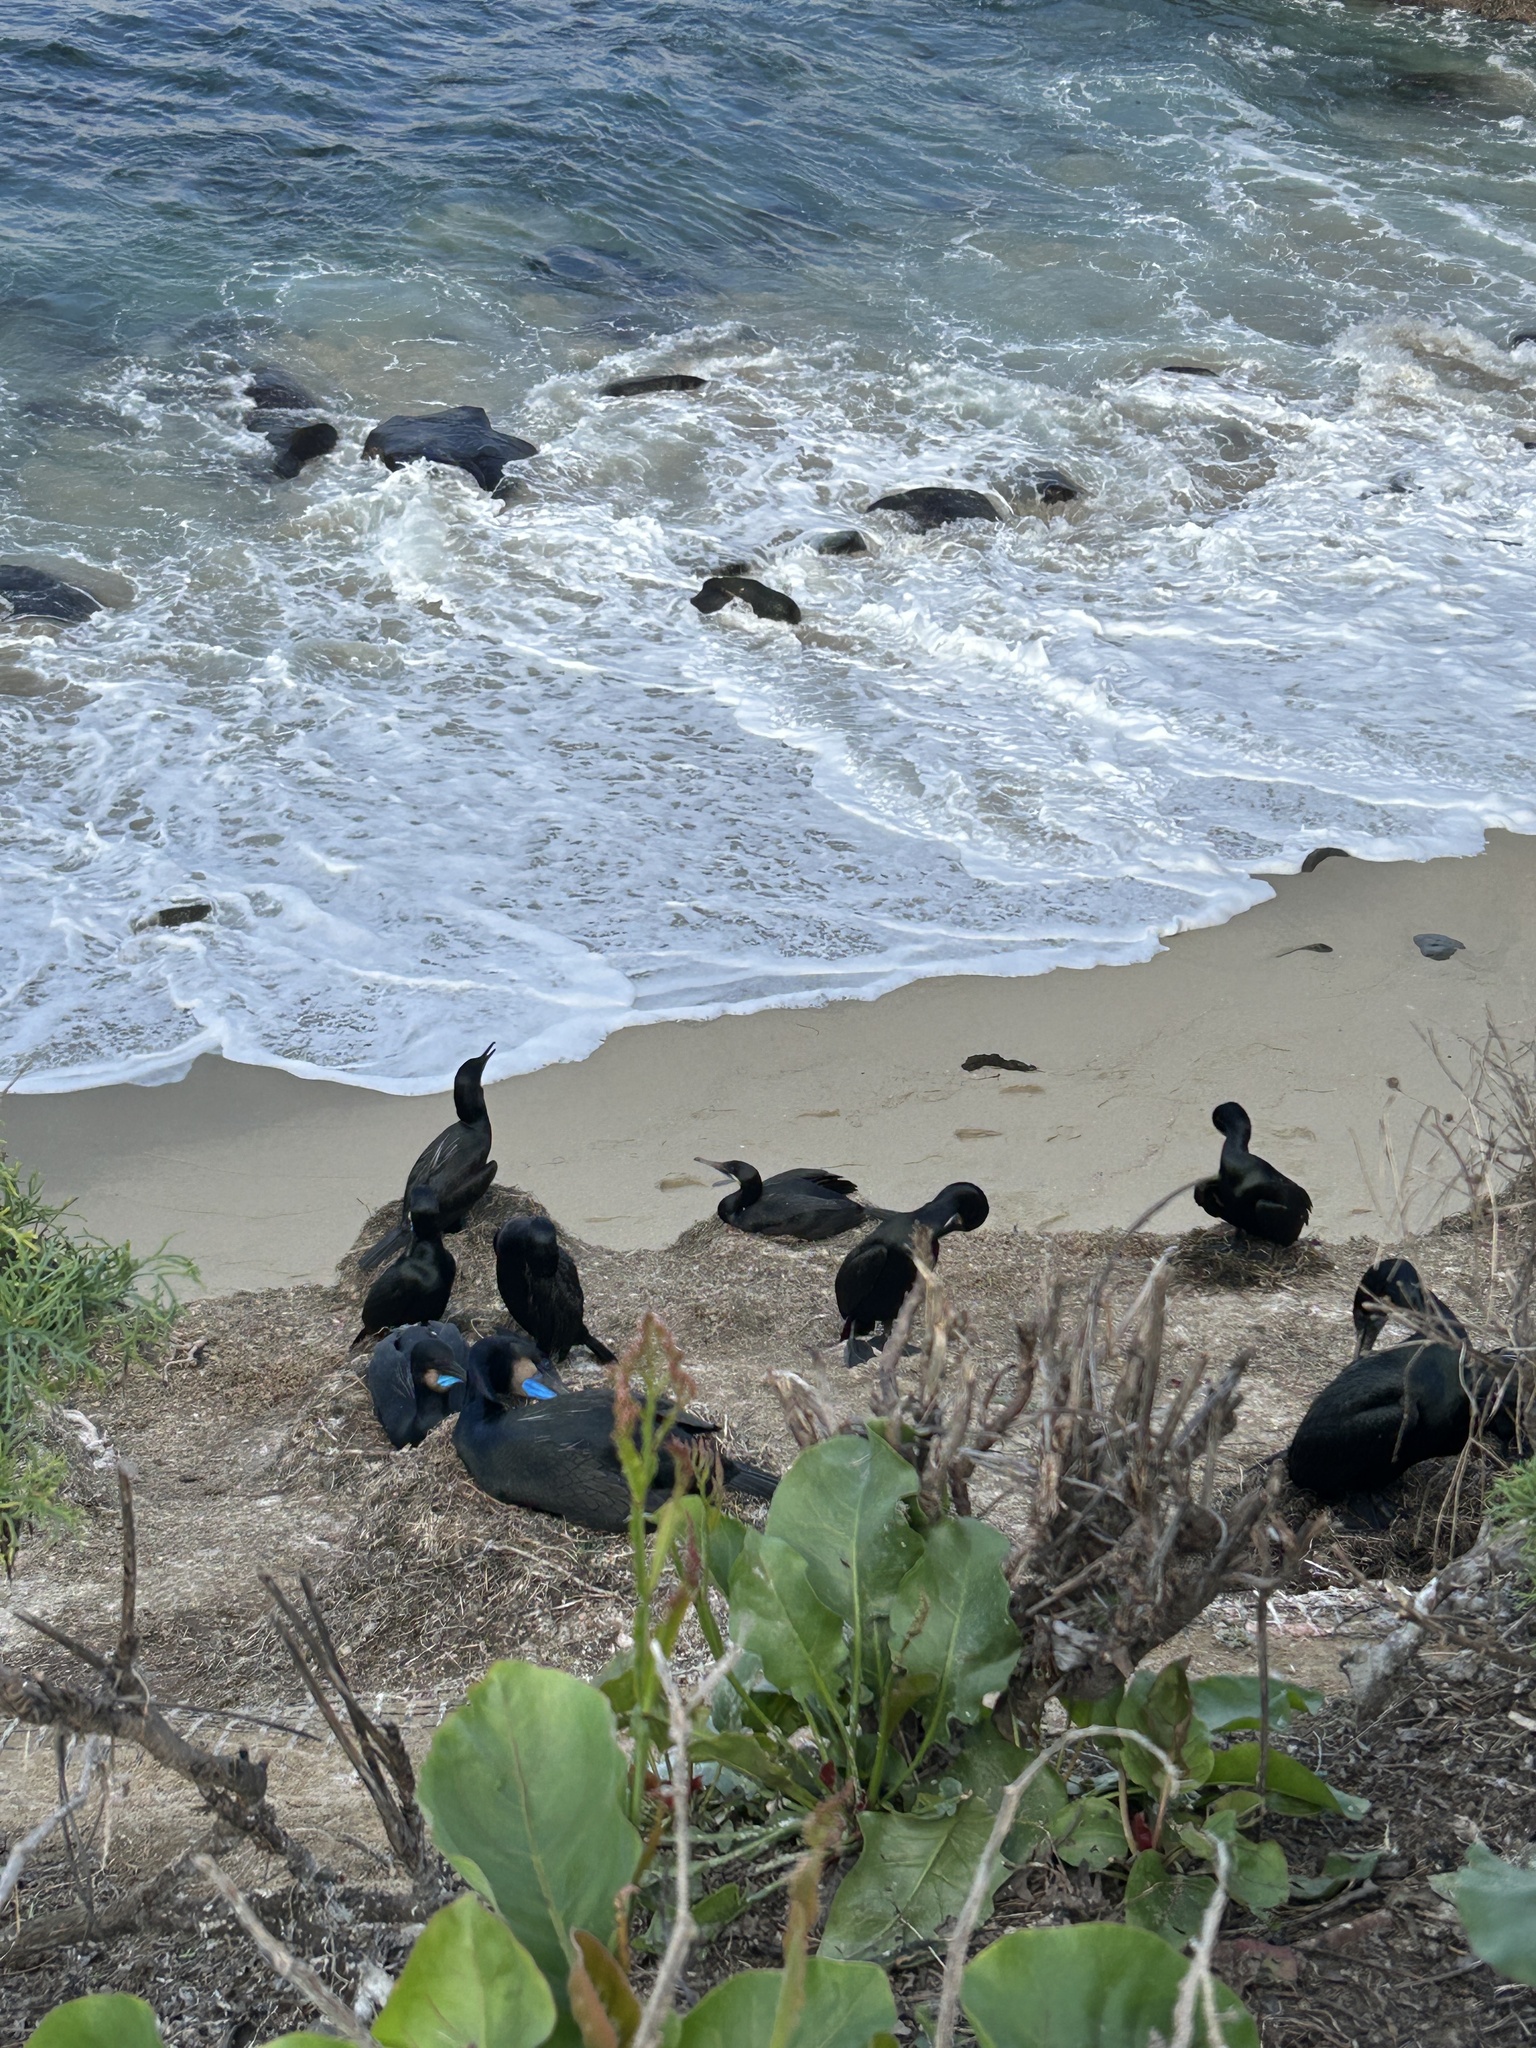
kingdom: Animalia
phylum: Chordata
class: Aves
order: Suliformes
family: Phalacrocoracidae
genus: Urile
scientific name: Urile penicillatus
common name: Brandt's cormorant
